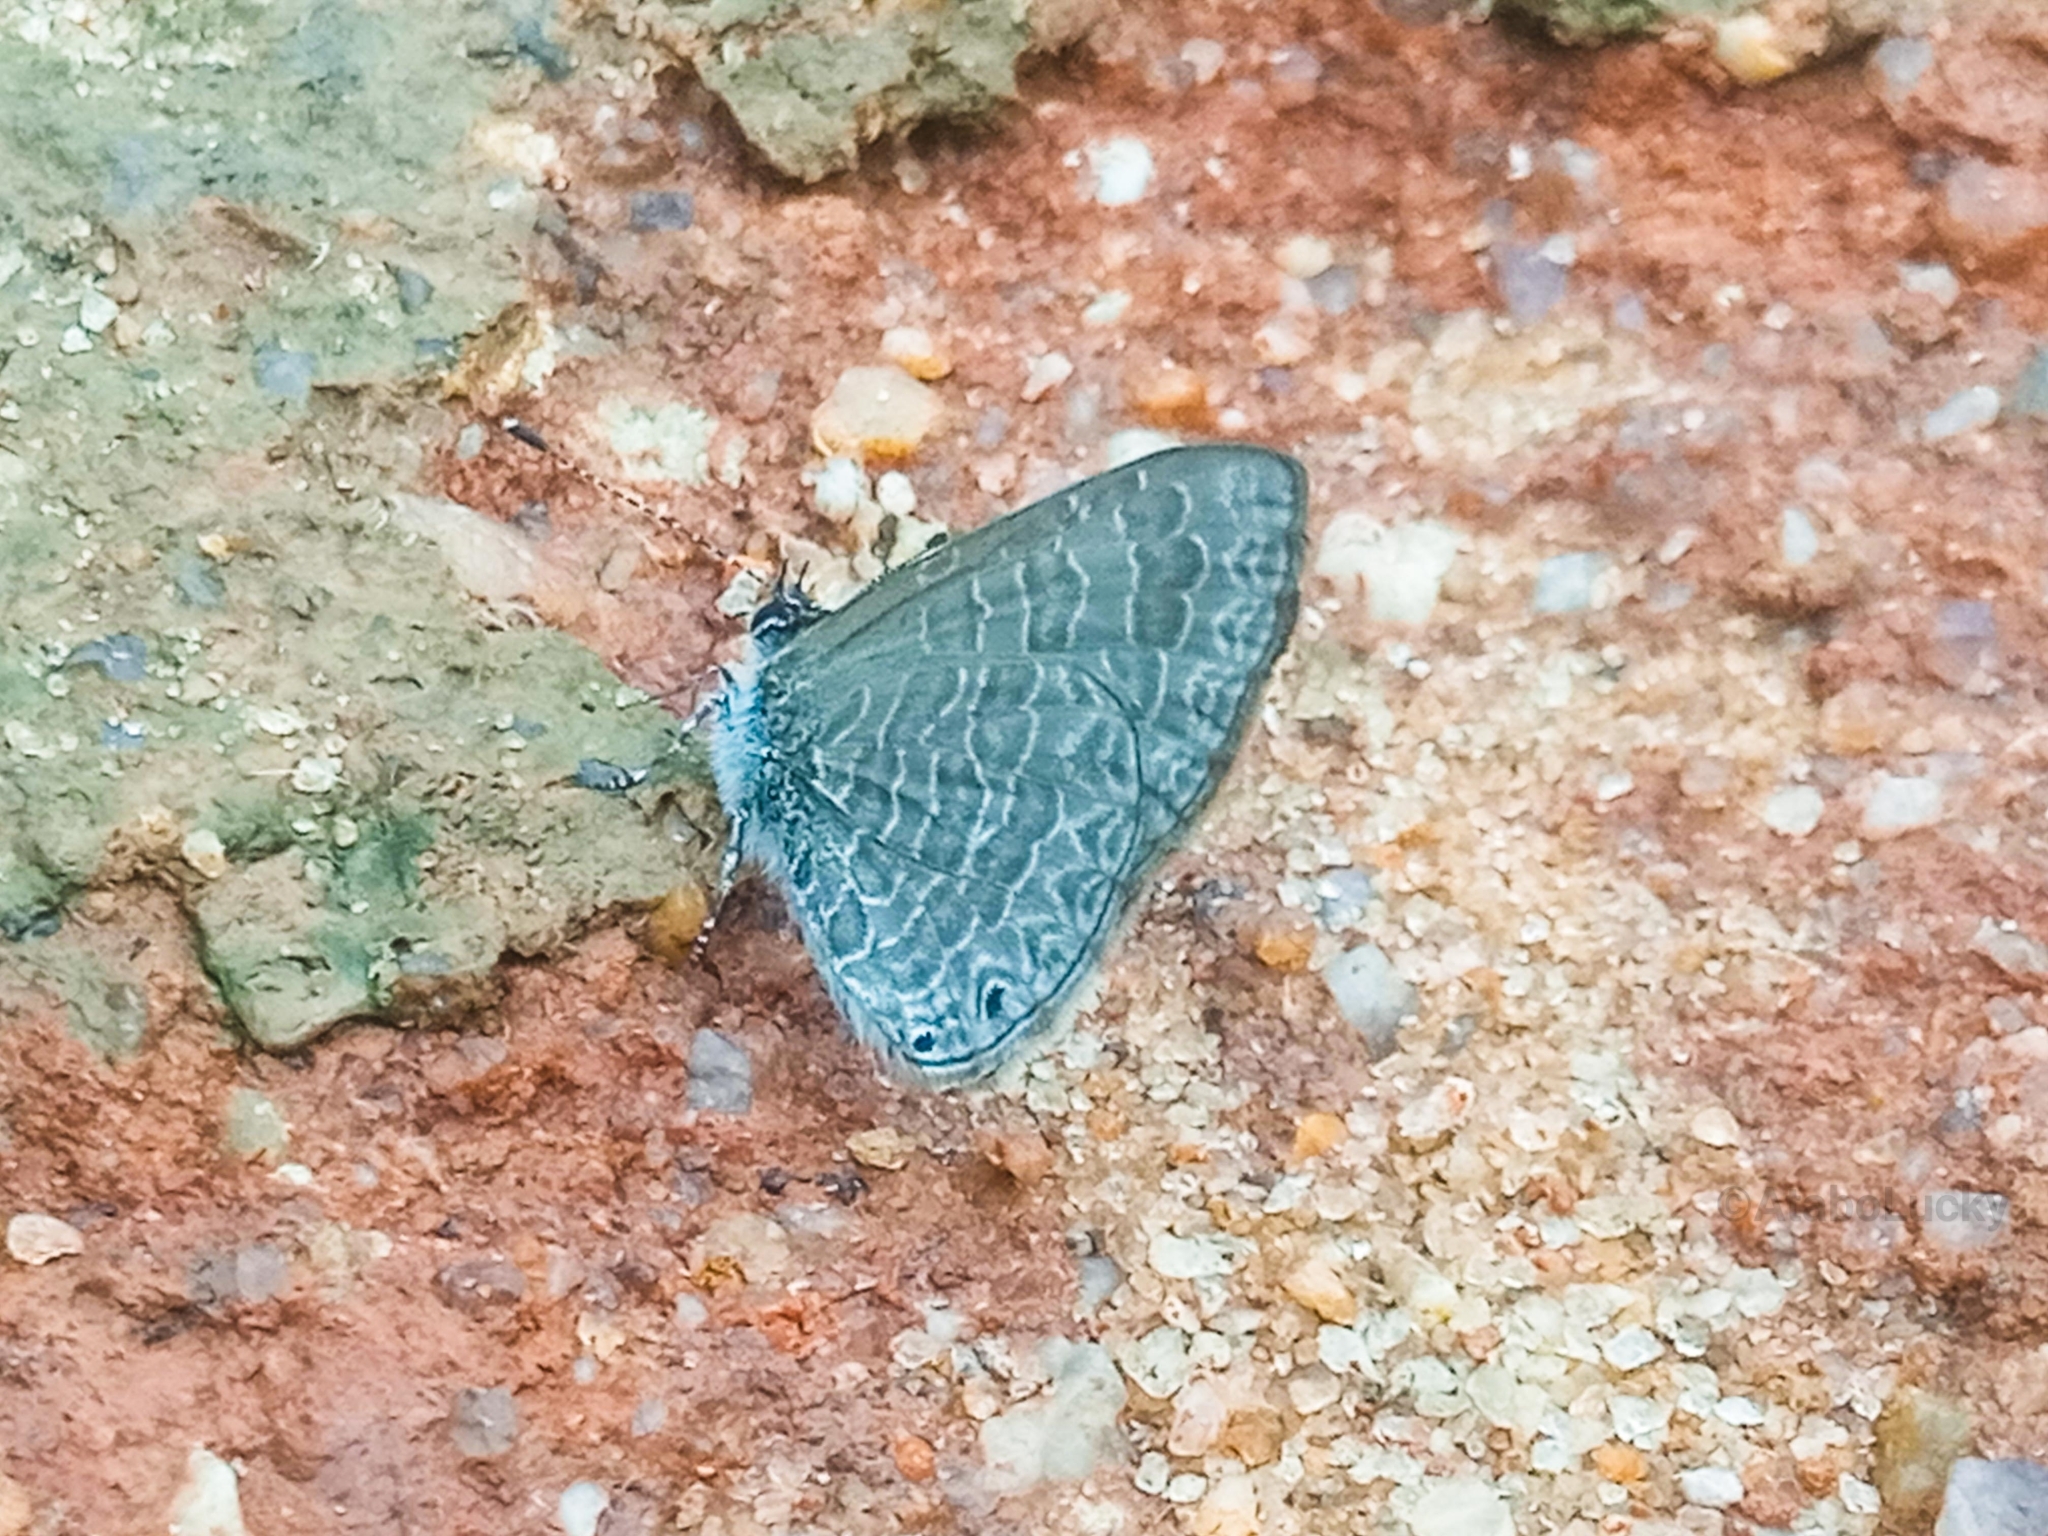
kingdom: Animalia
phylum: Arthropoda
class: Insecta
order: Lepidoptera
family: Lycaenidae
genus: Pseudonacaduba
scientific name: Pseudonacaduba aethiops
